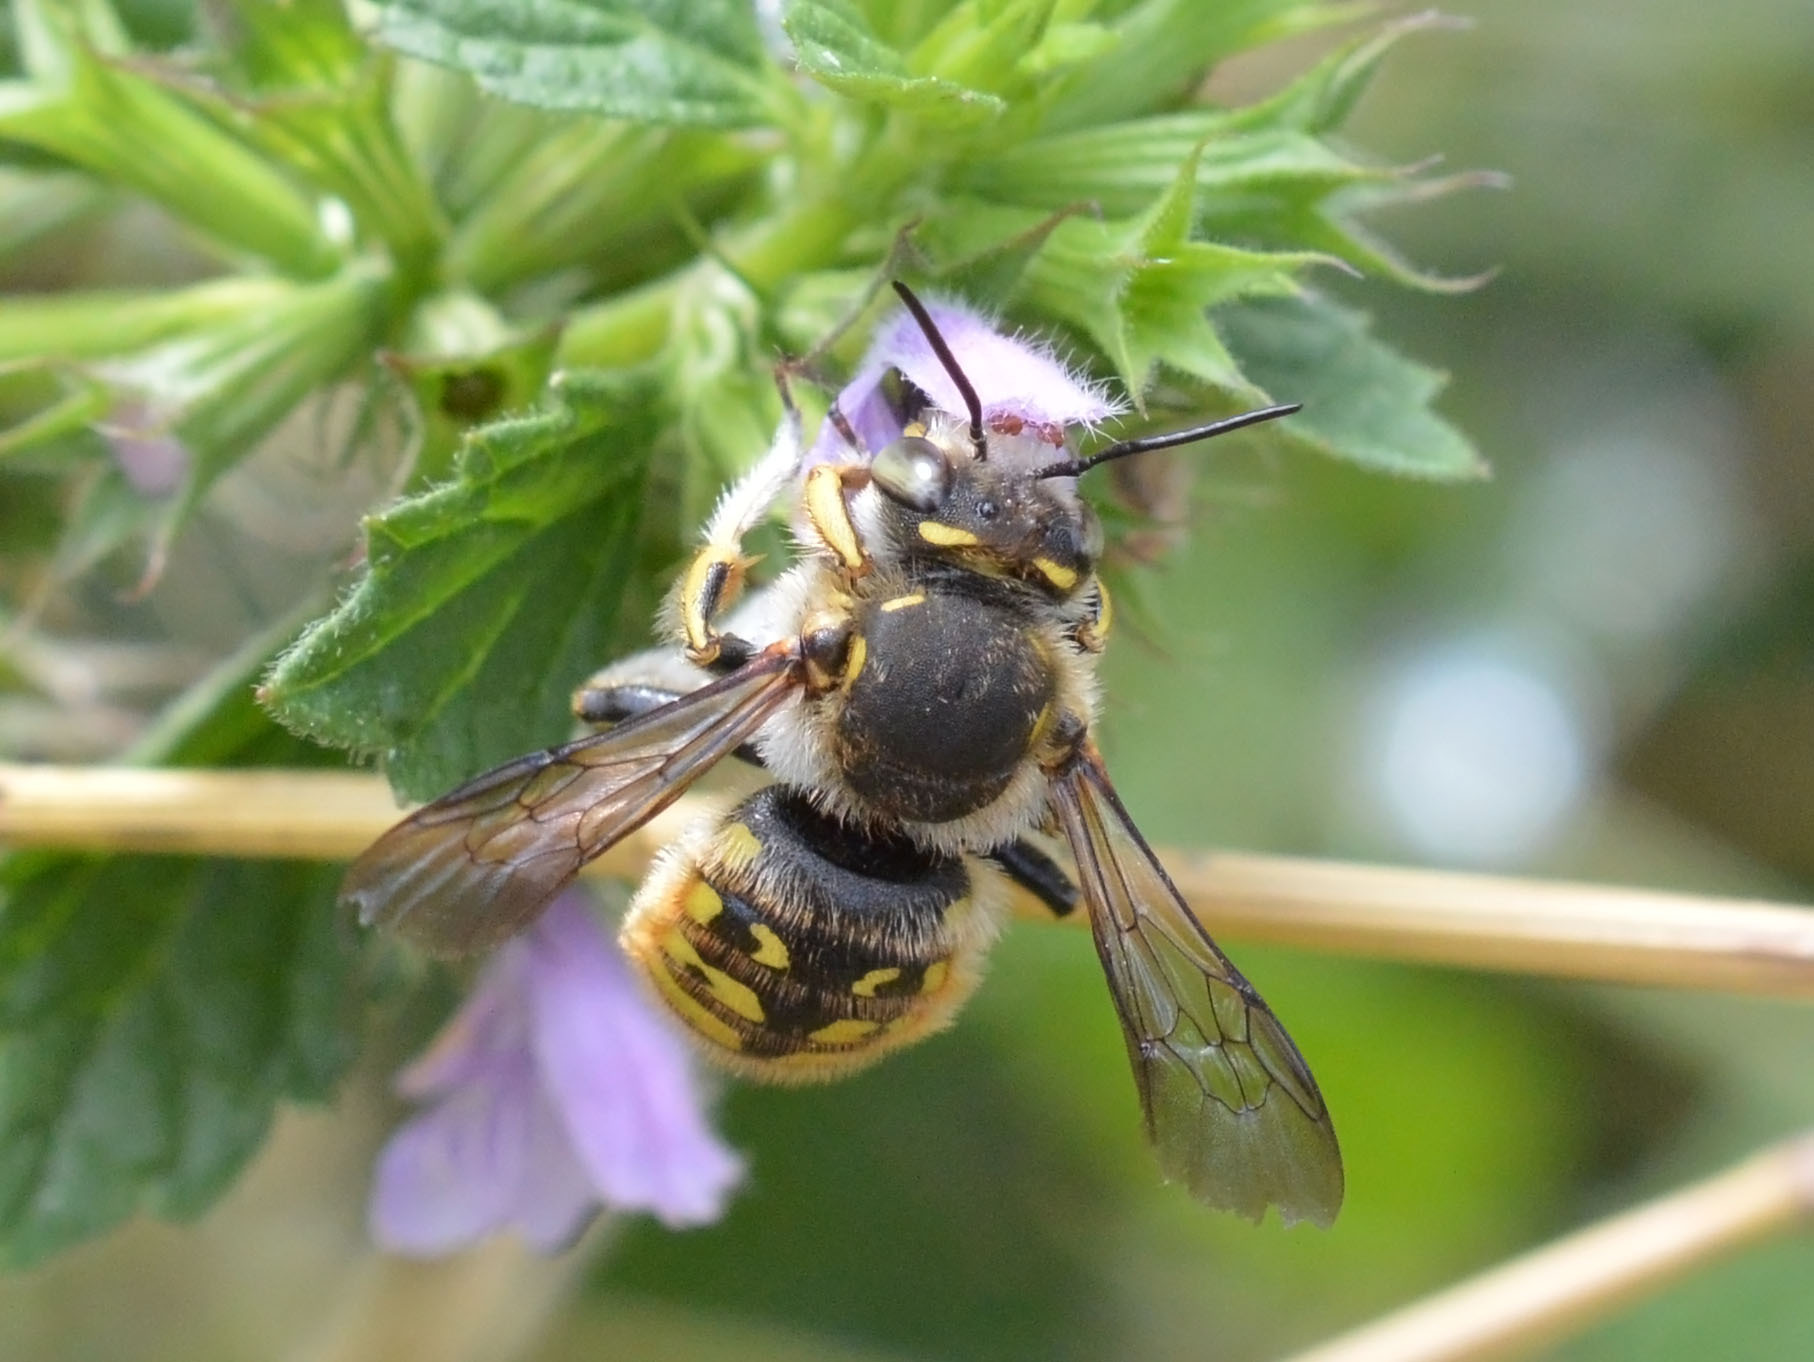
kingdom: Animalia
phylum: Arthropoda
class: Insecta
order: Hymenoptera
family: Megachilidae
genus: Anthidium
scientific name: Anthidium manicatum
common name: Wool carder bee
